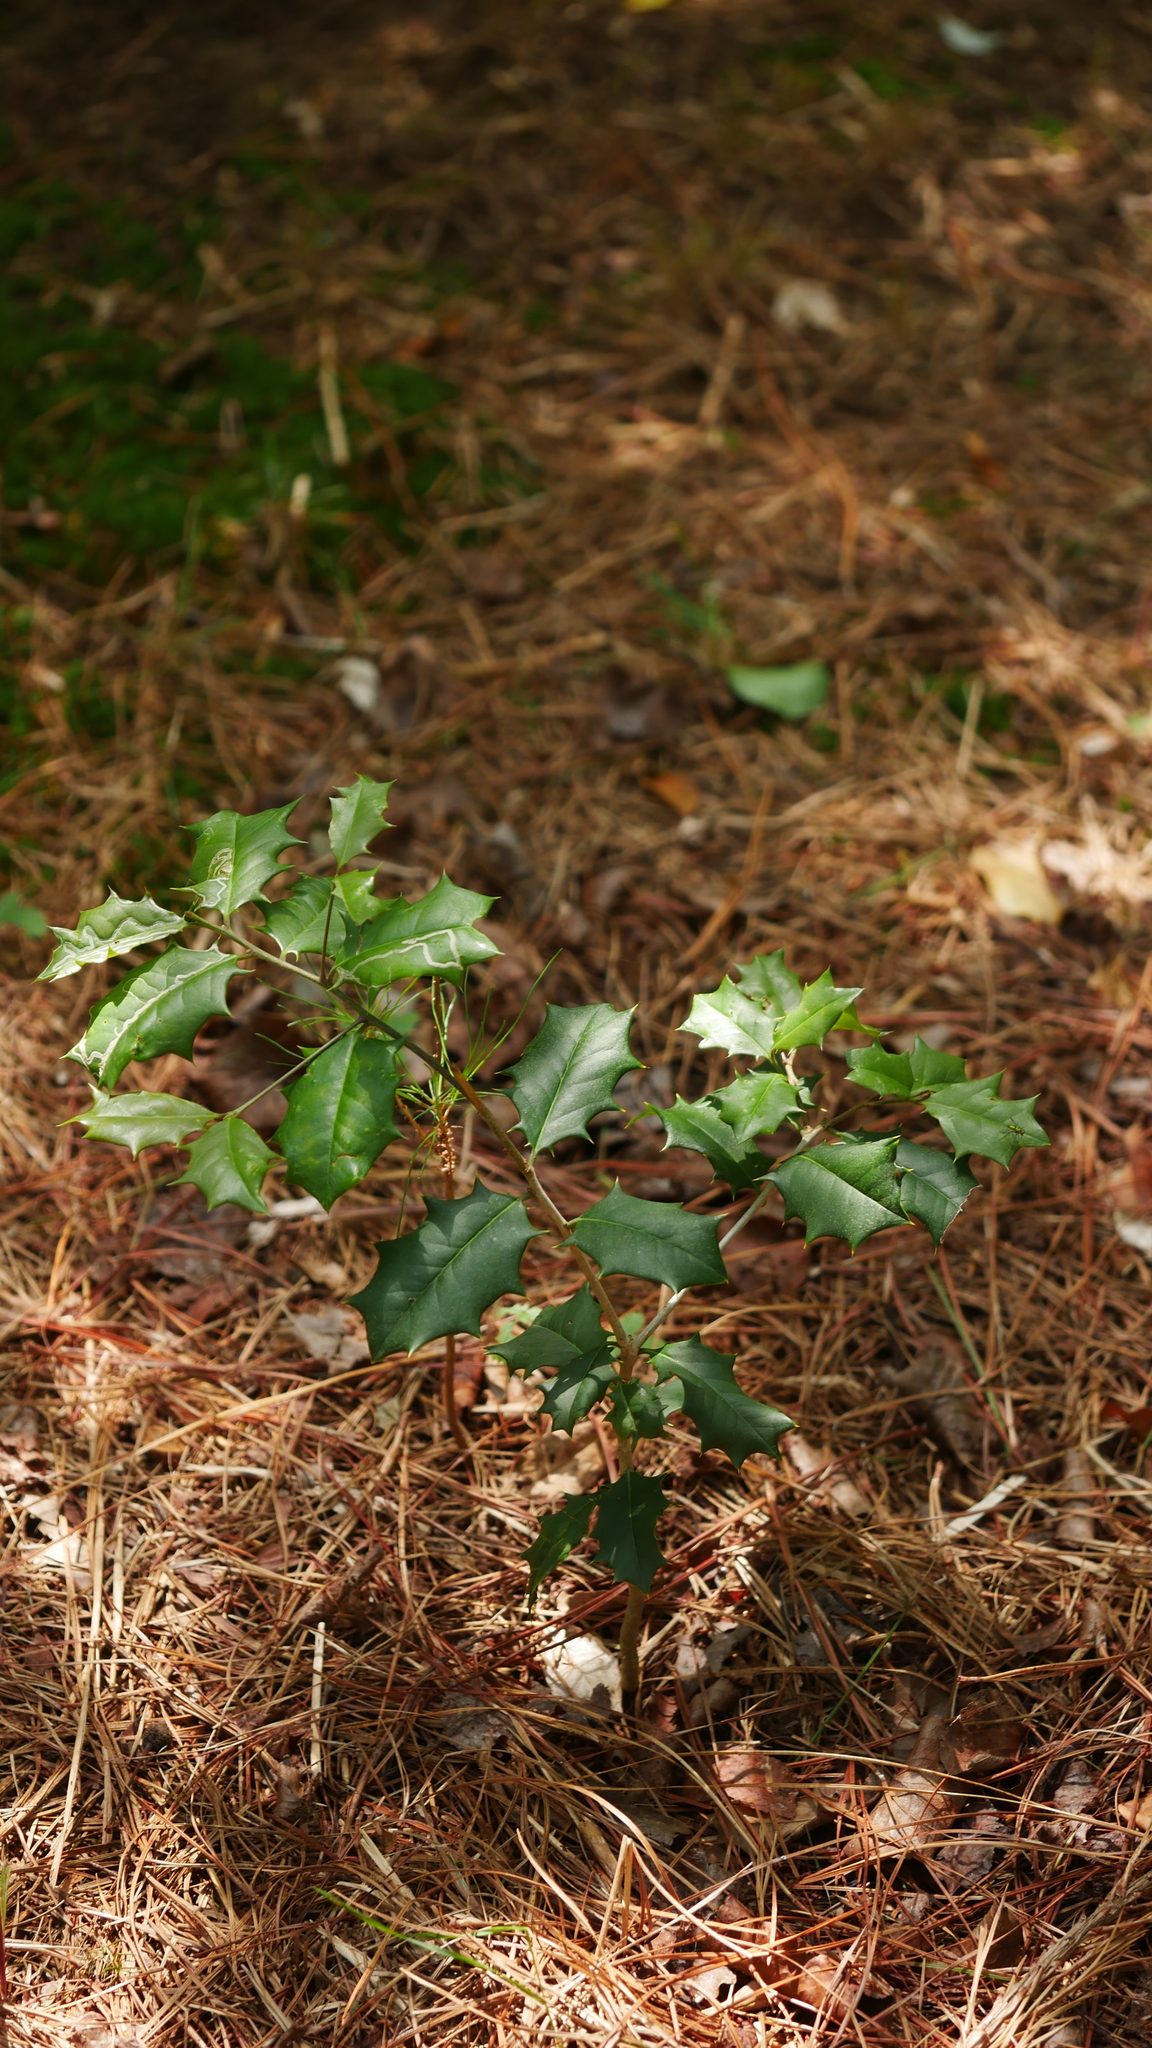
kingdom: Plantae
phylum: Tracheophyta
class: Magnoliopsida
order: Aquifoliales
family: Aquifoliaceae
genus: Ilex
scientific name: Ilex opaca
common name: American holly
